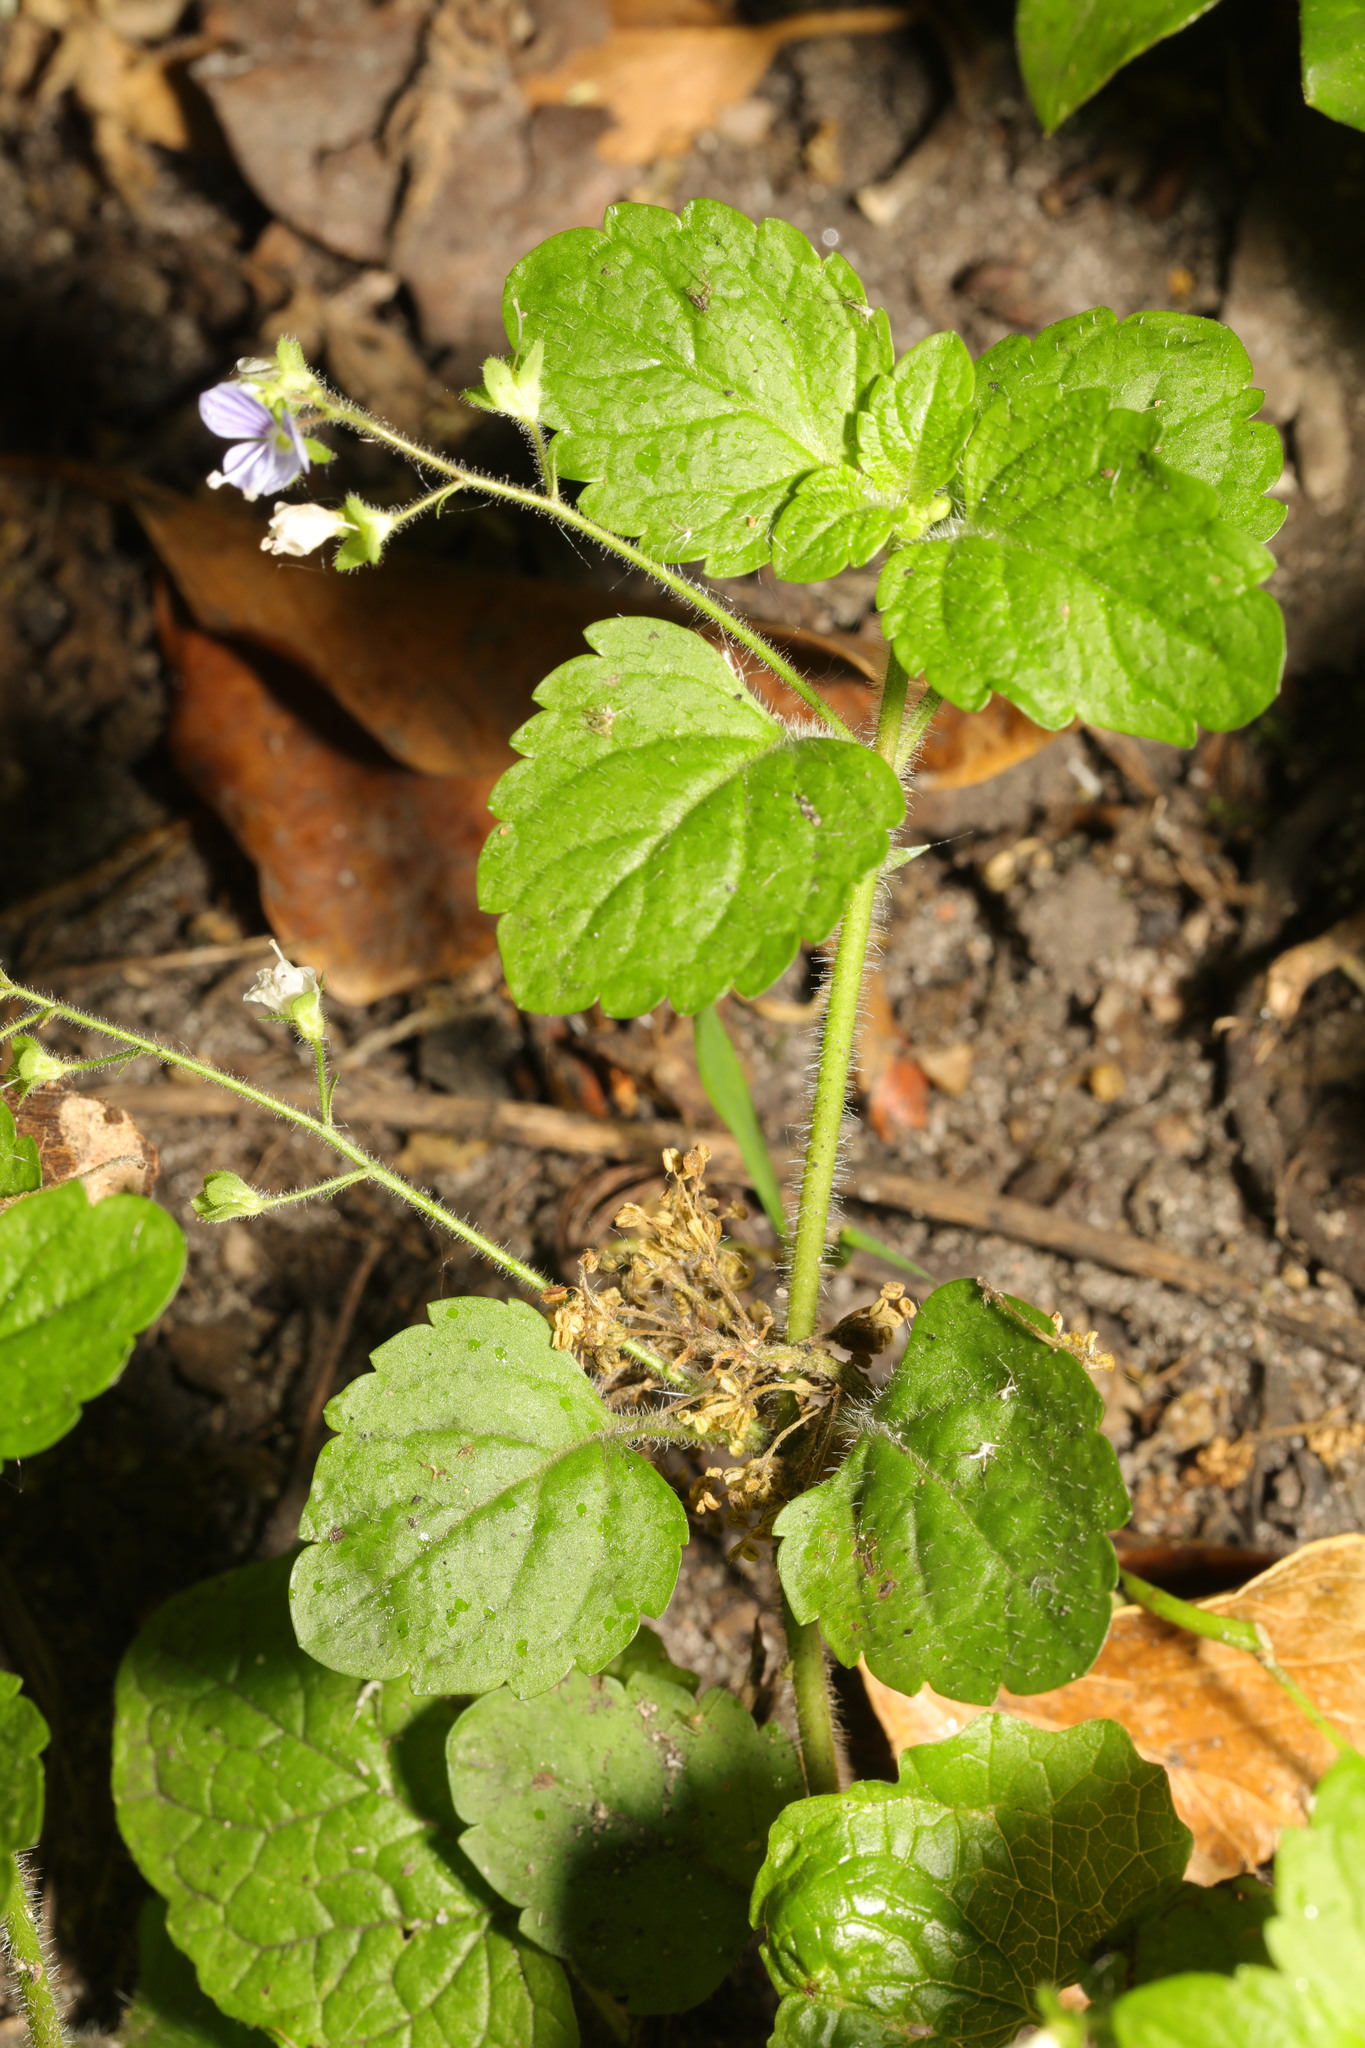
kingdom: Plantae
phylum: Tracheophyta
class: Magnoliopsida
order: Lamiales
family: Plantaginaceae
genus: Veronica
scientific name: Veronica montana
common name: Wood speedwell
